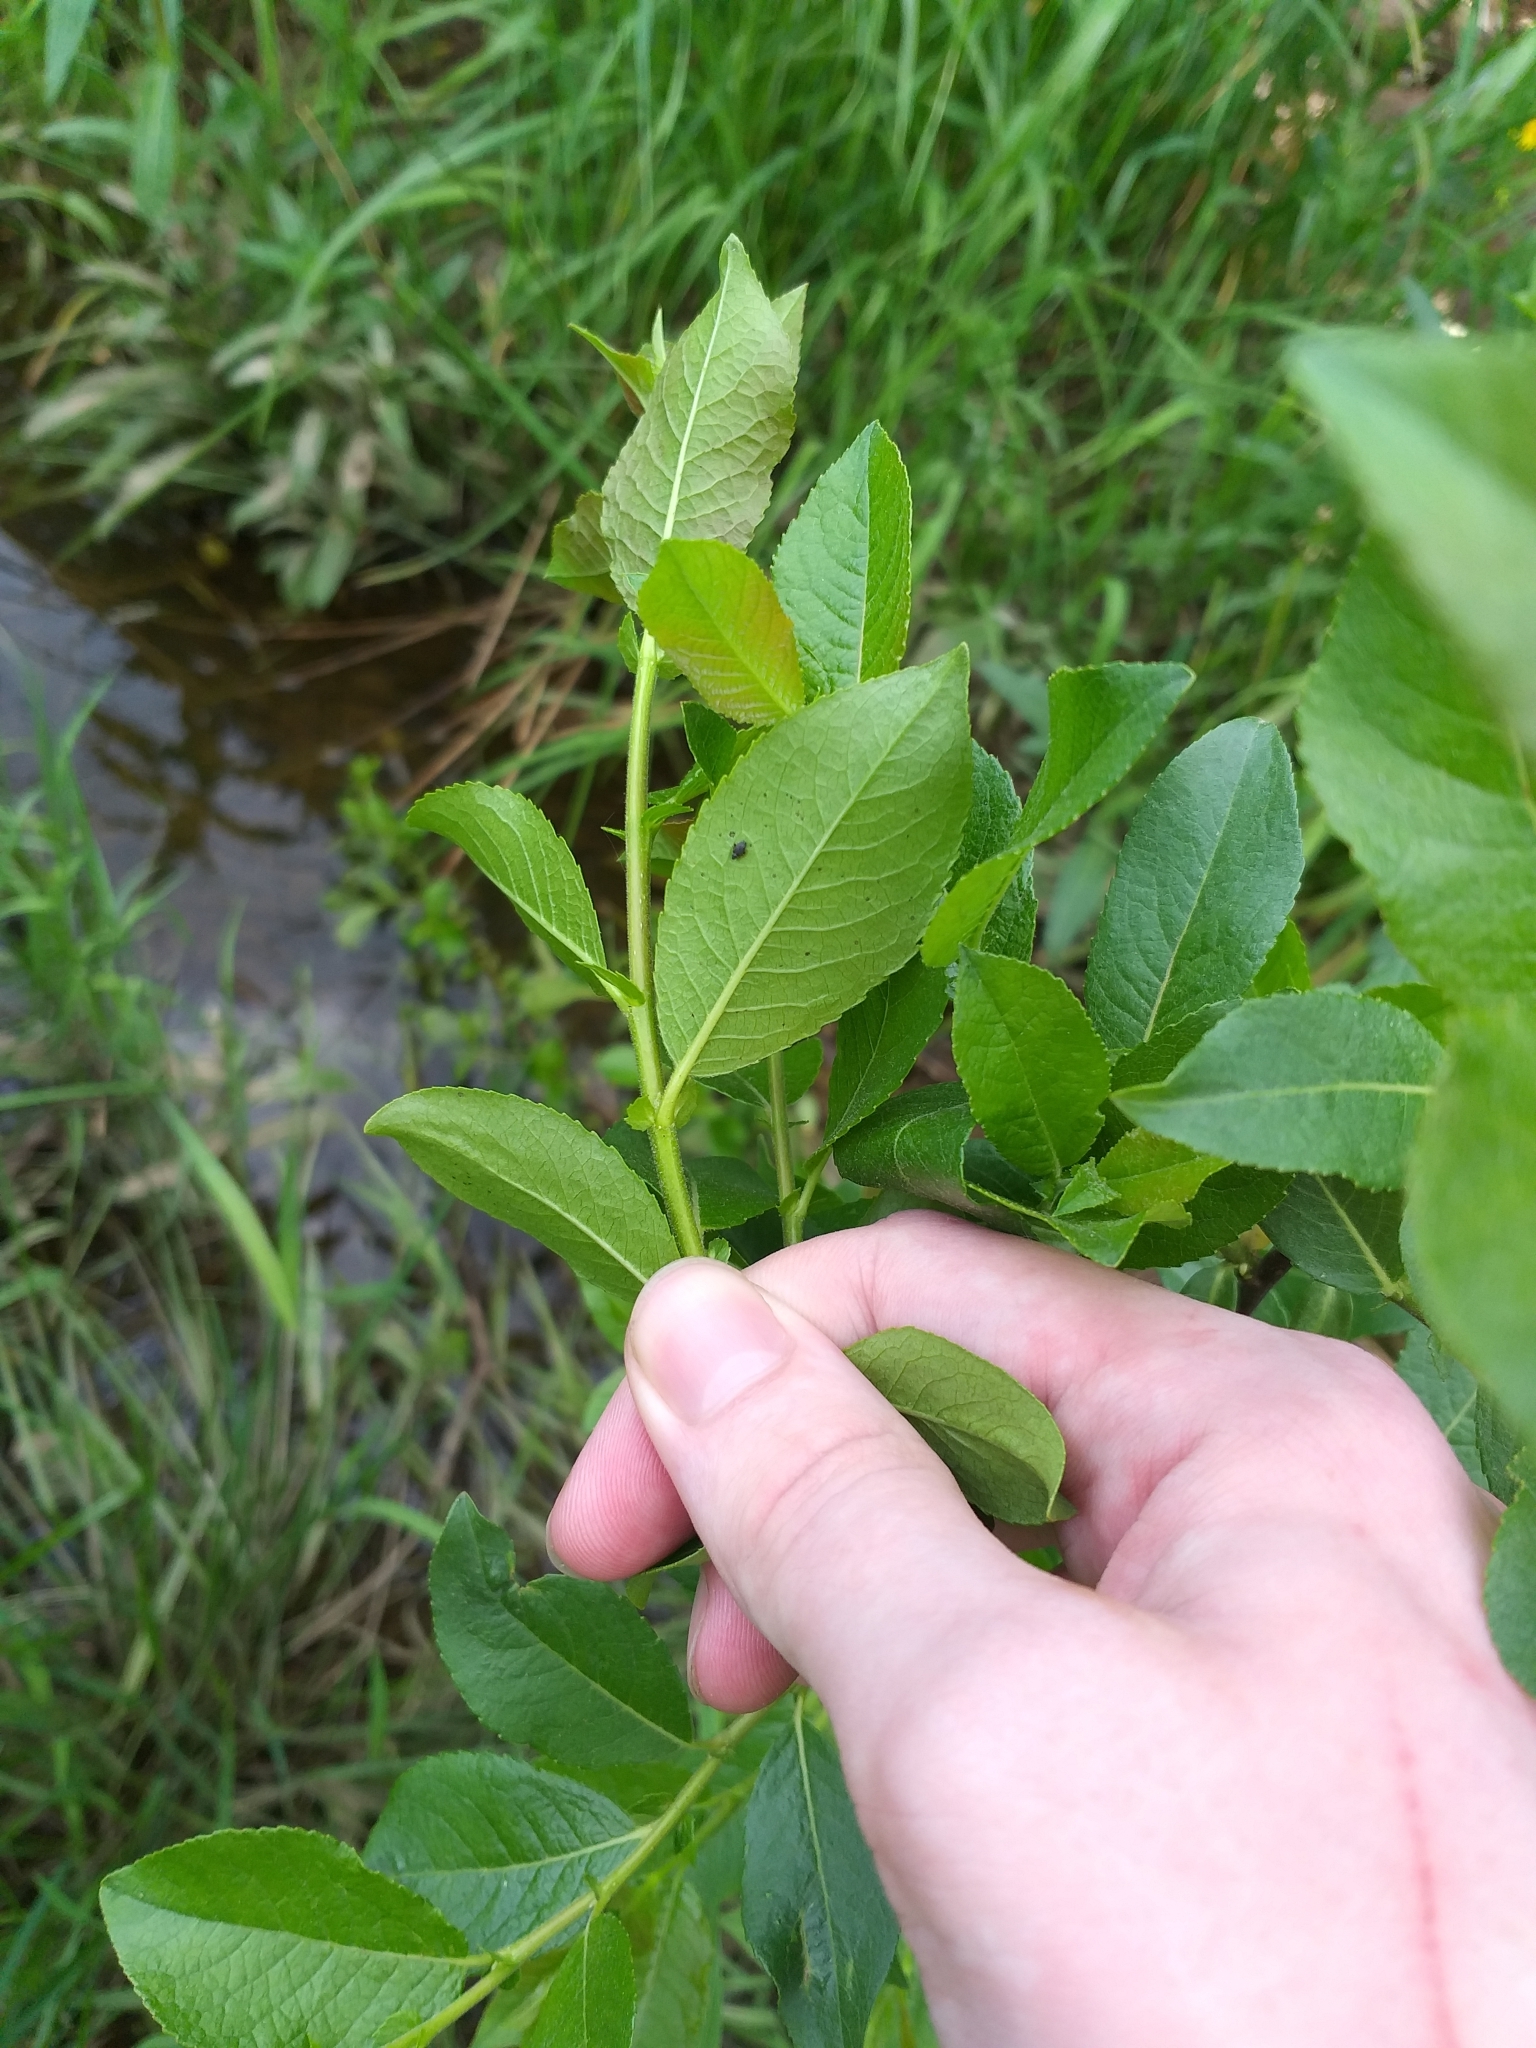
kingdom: Plantae
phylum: Tracheophyta
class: Magnoliopsida
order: Malpighiales
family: Salicaceae
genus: Salix
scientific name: Salix myrsinifolia
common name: Dark-leaved willow
